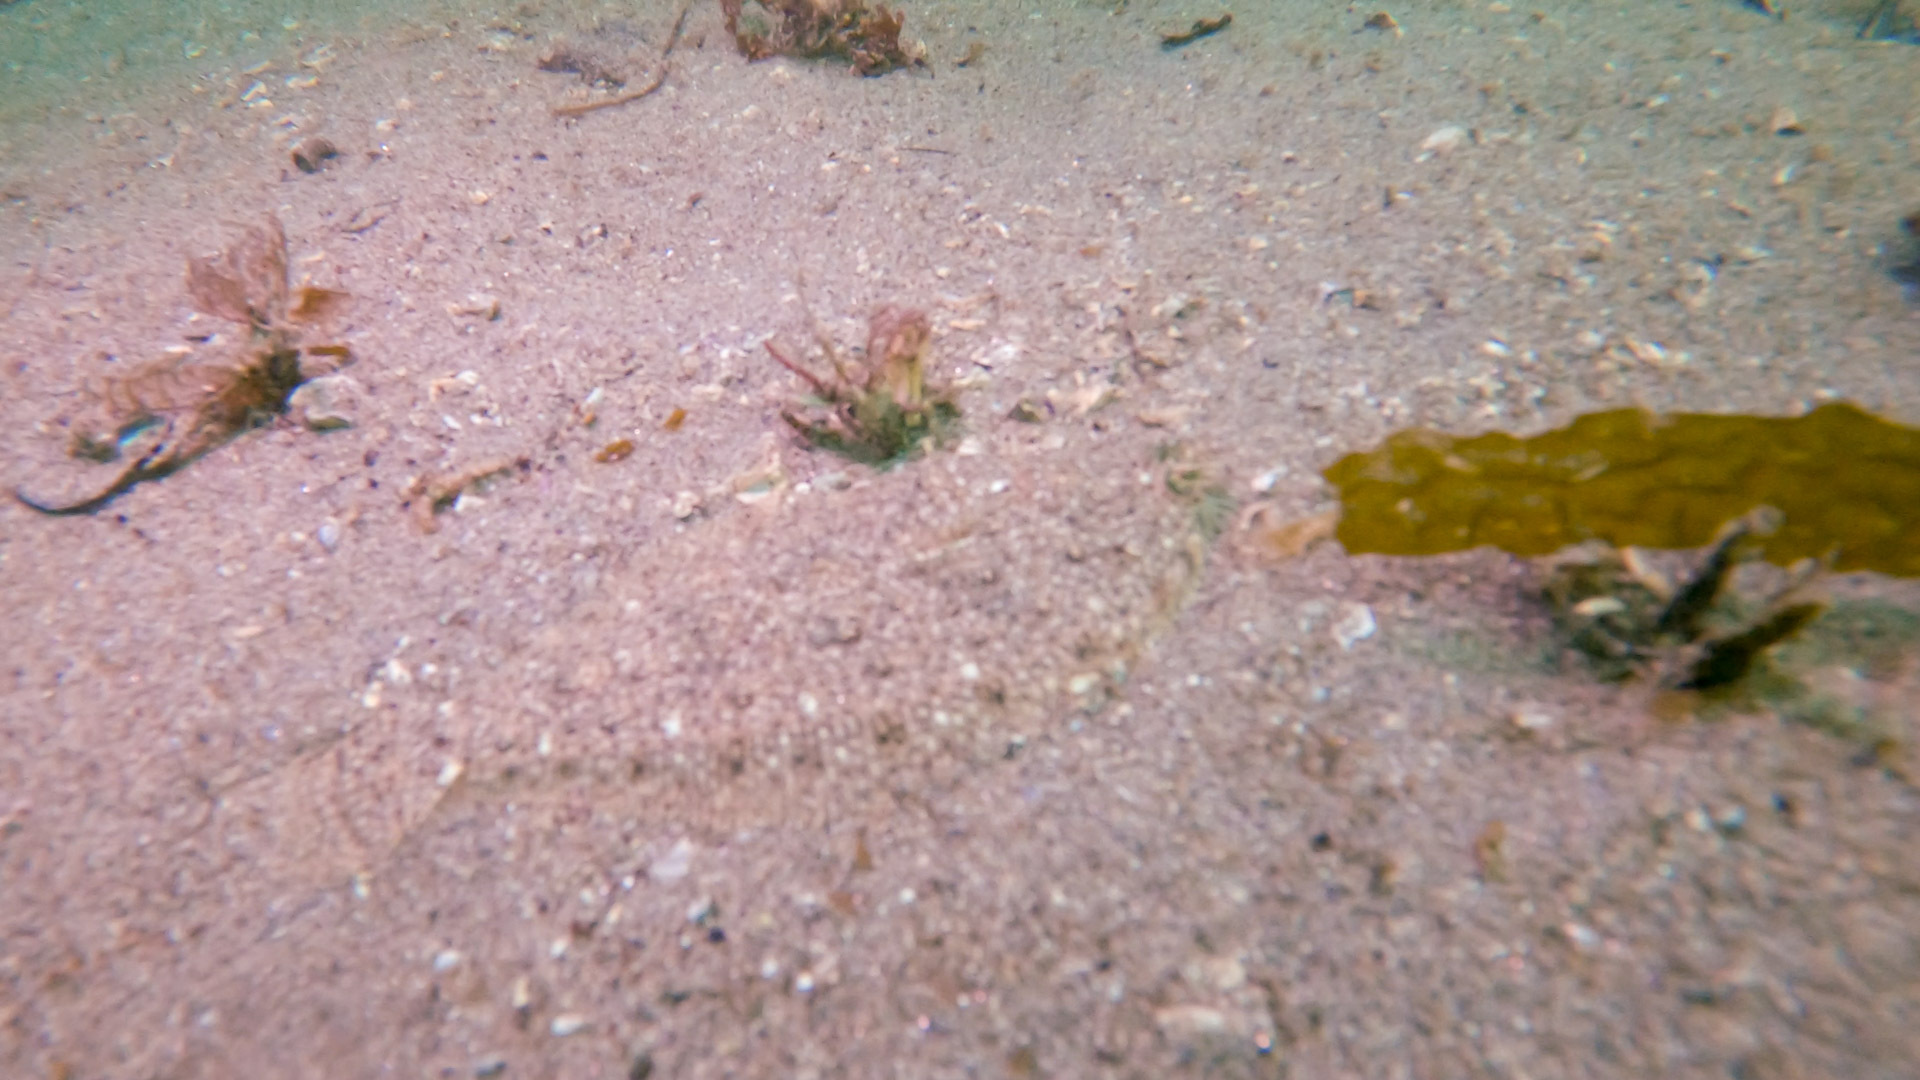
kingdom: Animalia
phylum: Chordata
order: Pleuronectiformes
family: Paralichthyidae
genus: Citharichthys
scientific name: Citharichthys stigmaeus
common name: Speckled sanddab
